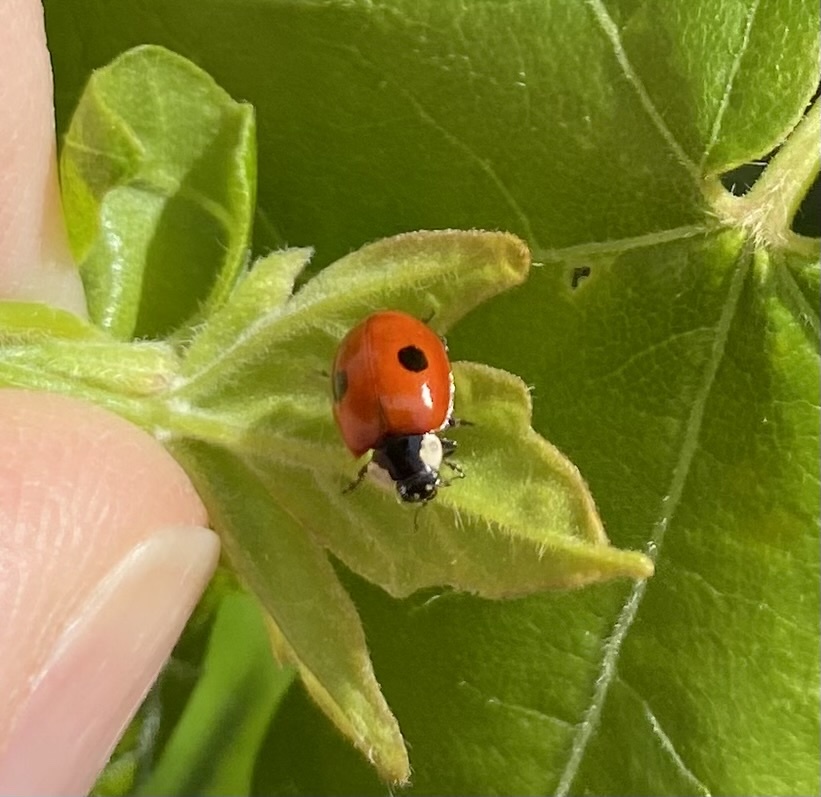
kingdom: Animalia
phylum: Arthropoda
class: Insecta
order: Coleoptera
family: Coccinellidae
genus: Adalia
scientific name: Adalia bipunctata
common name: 2-spot ladybird
